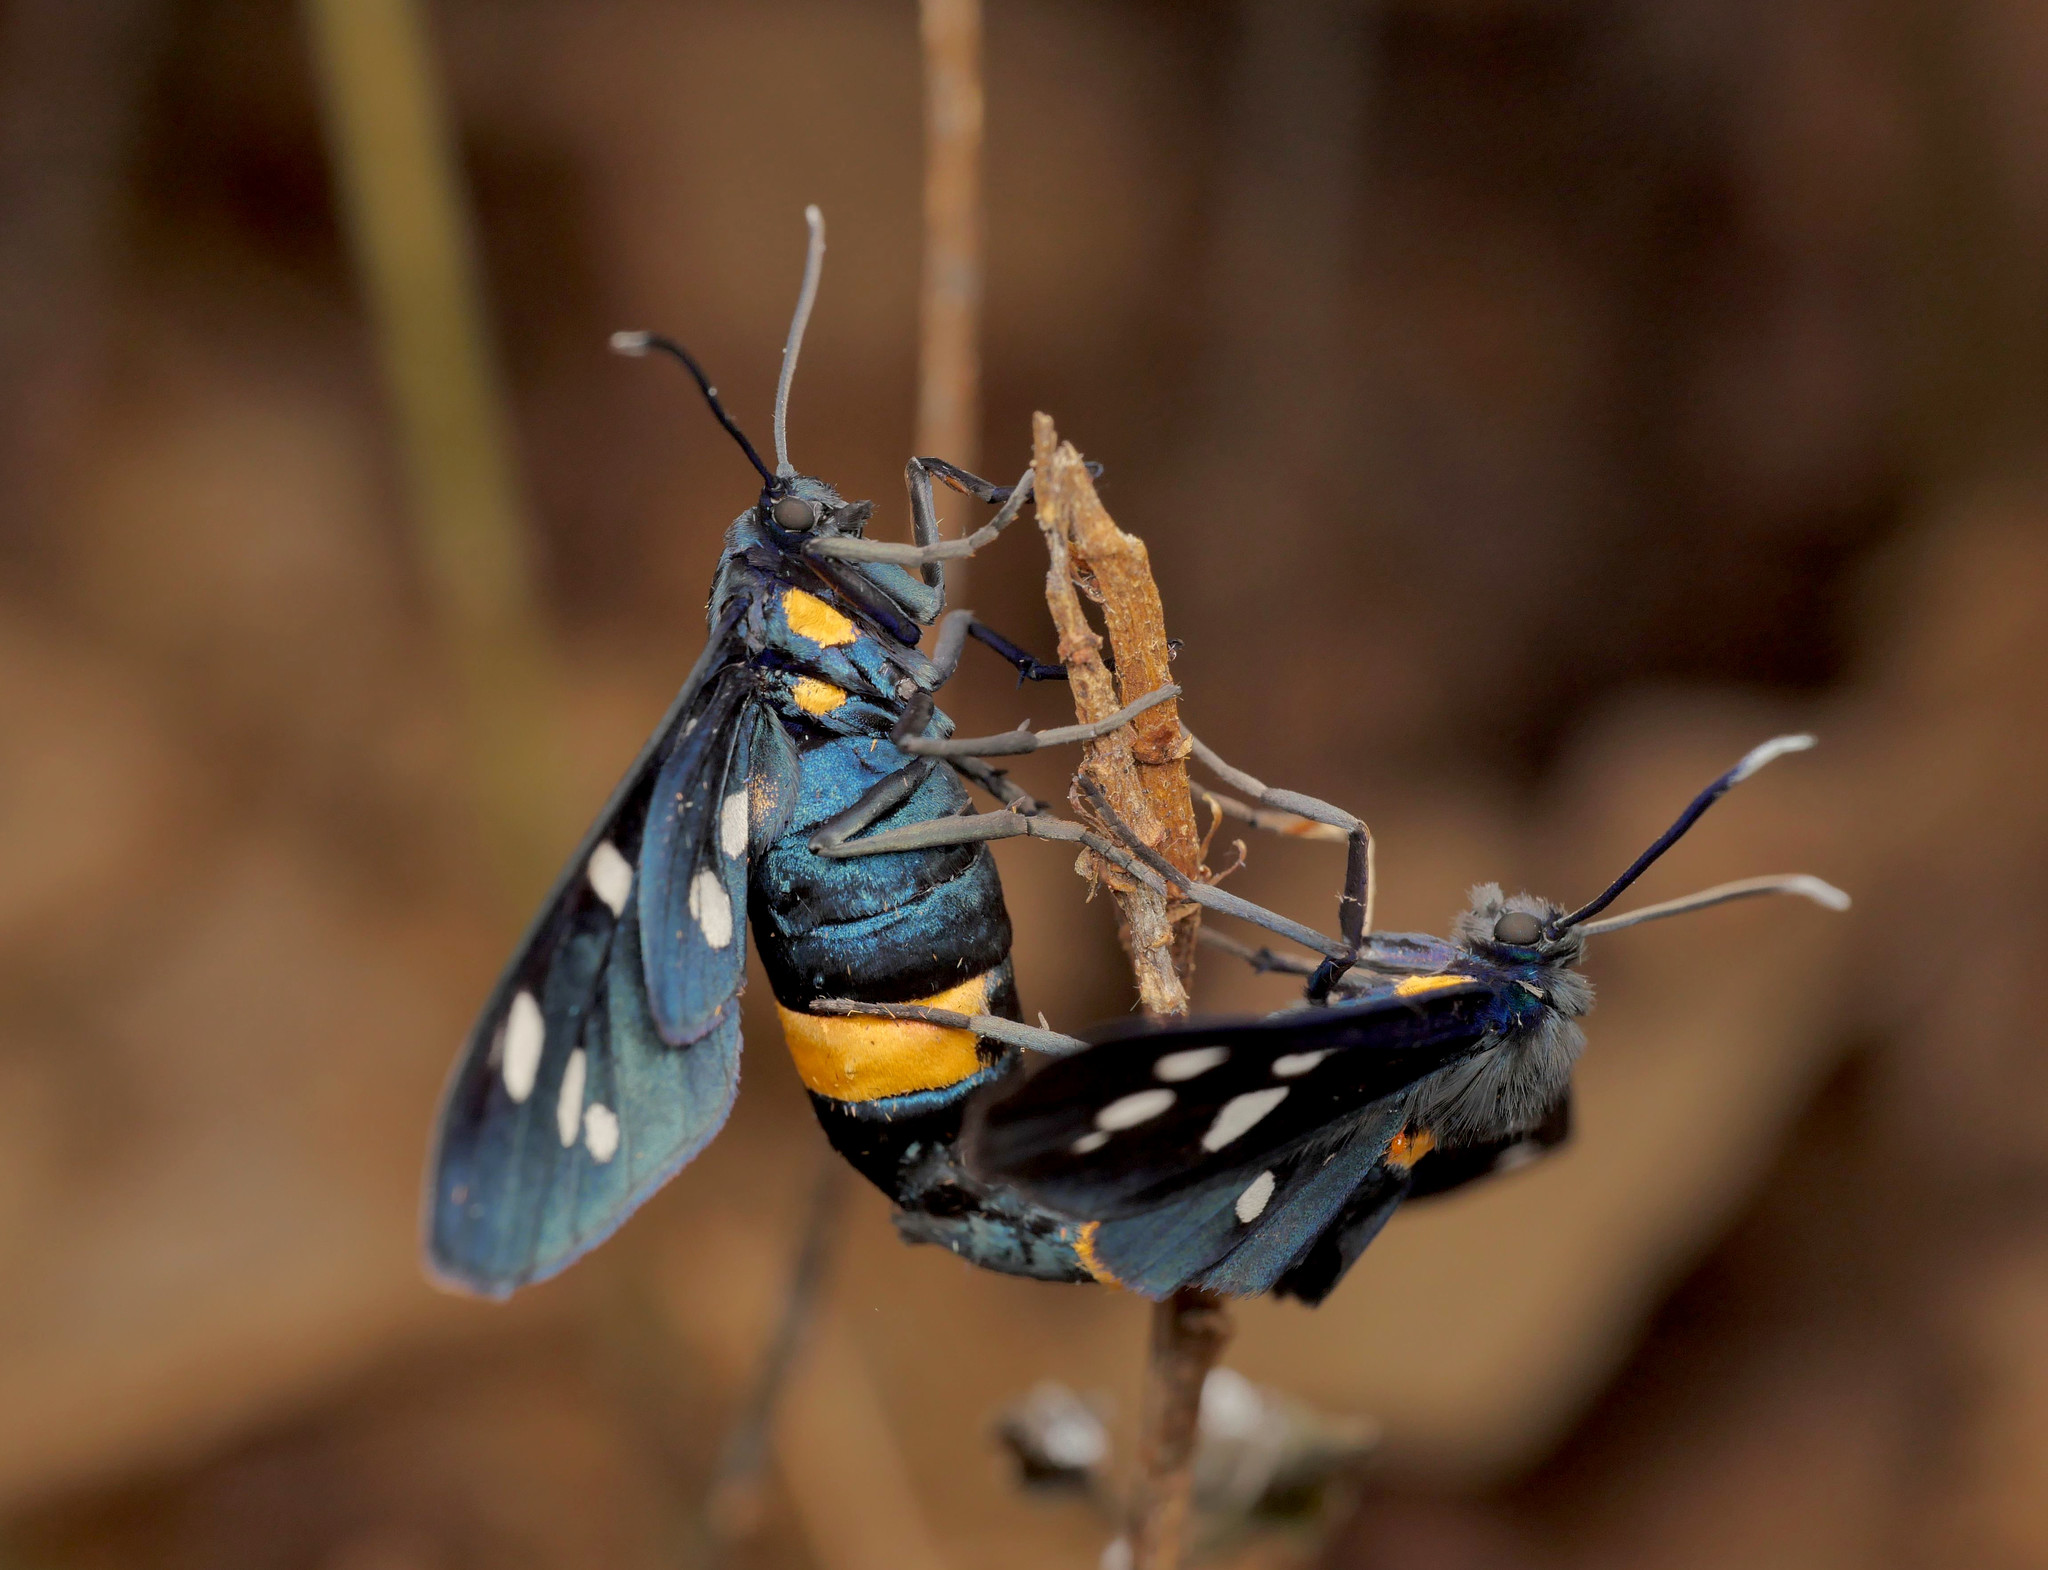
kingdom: Animalia
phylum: Arthropoda
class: Insecta
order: Lepidoptera
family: Erebidae
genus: Amata
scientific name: Amata phegea
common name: Nine-spotted
